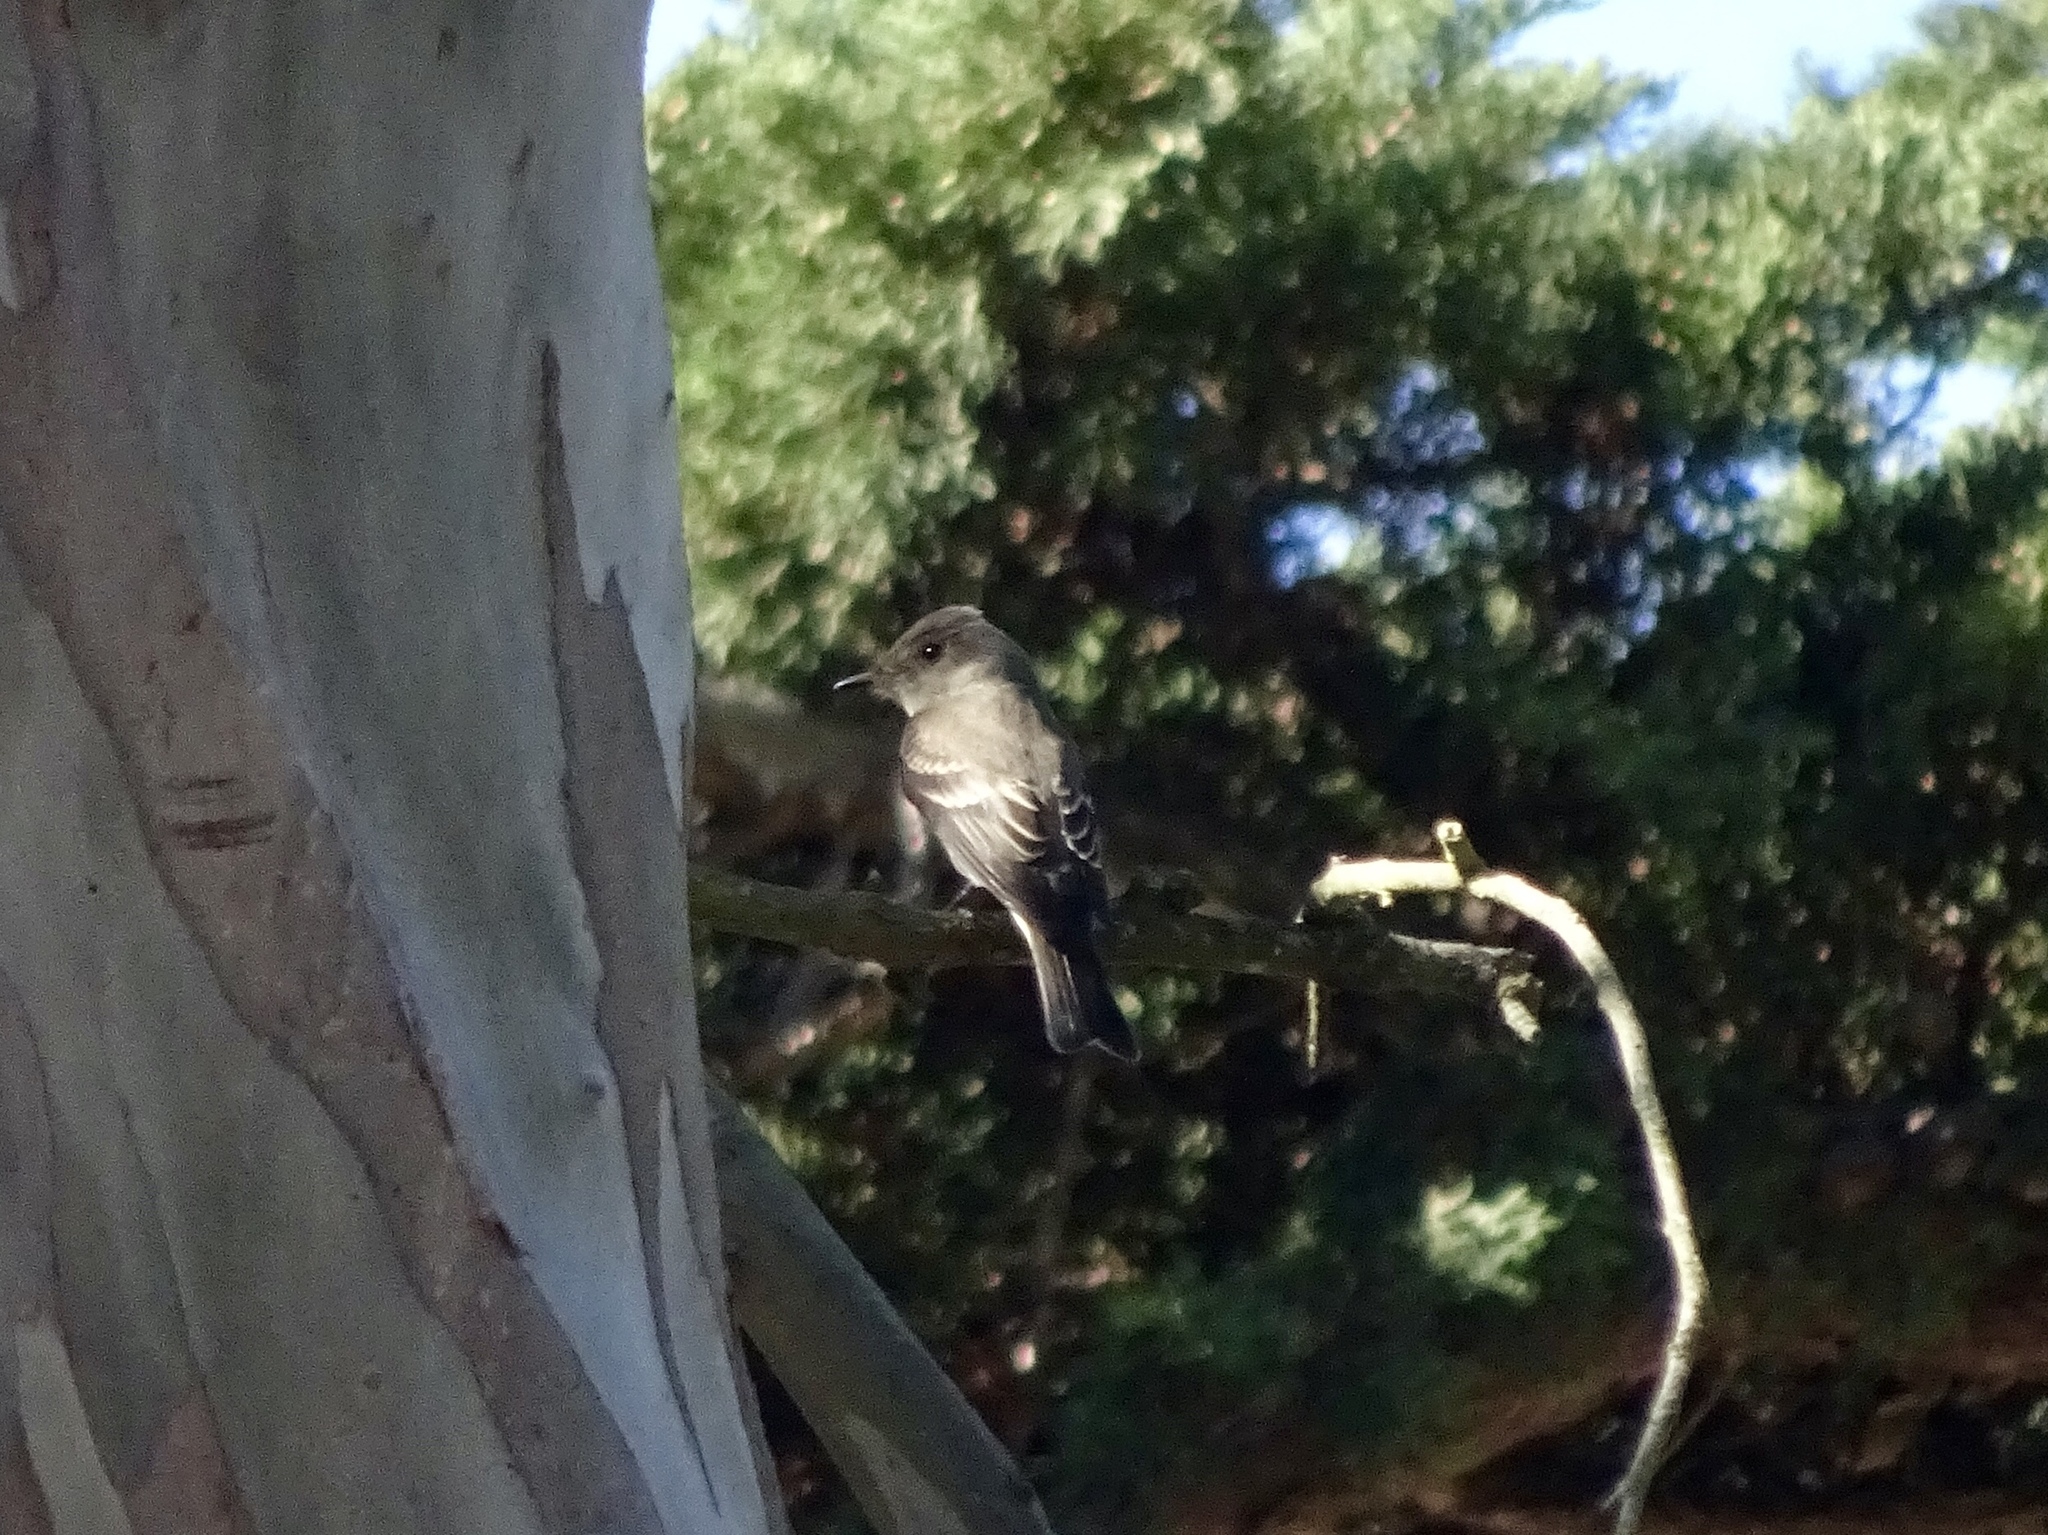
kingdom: Animalia
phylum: Chordata
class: Aves
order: Passeriformes
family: Tyrannidae
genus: Contopus
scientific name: Contopus sordidulus
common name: Western wood-pewee
